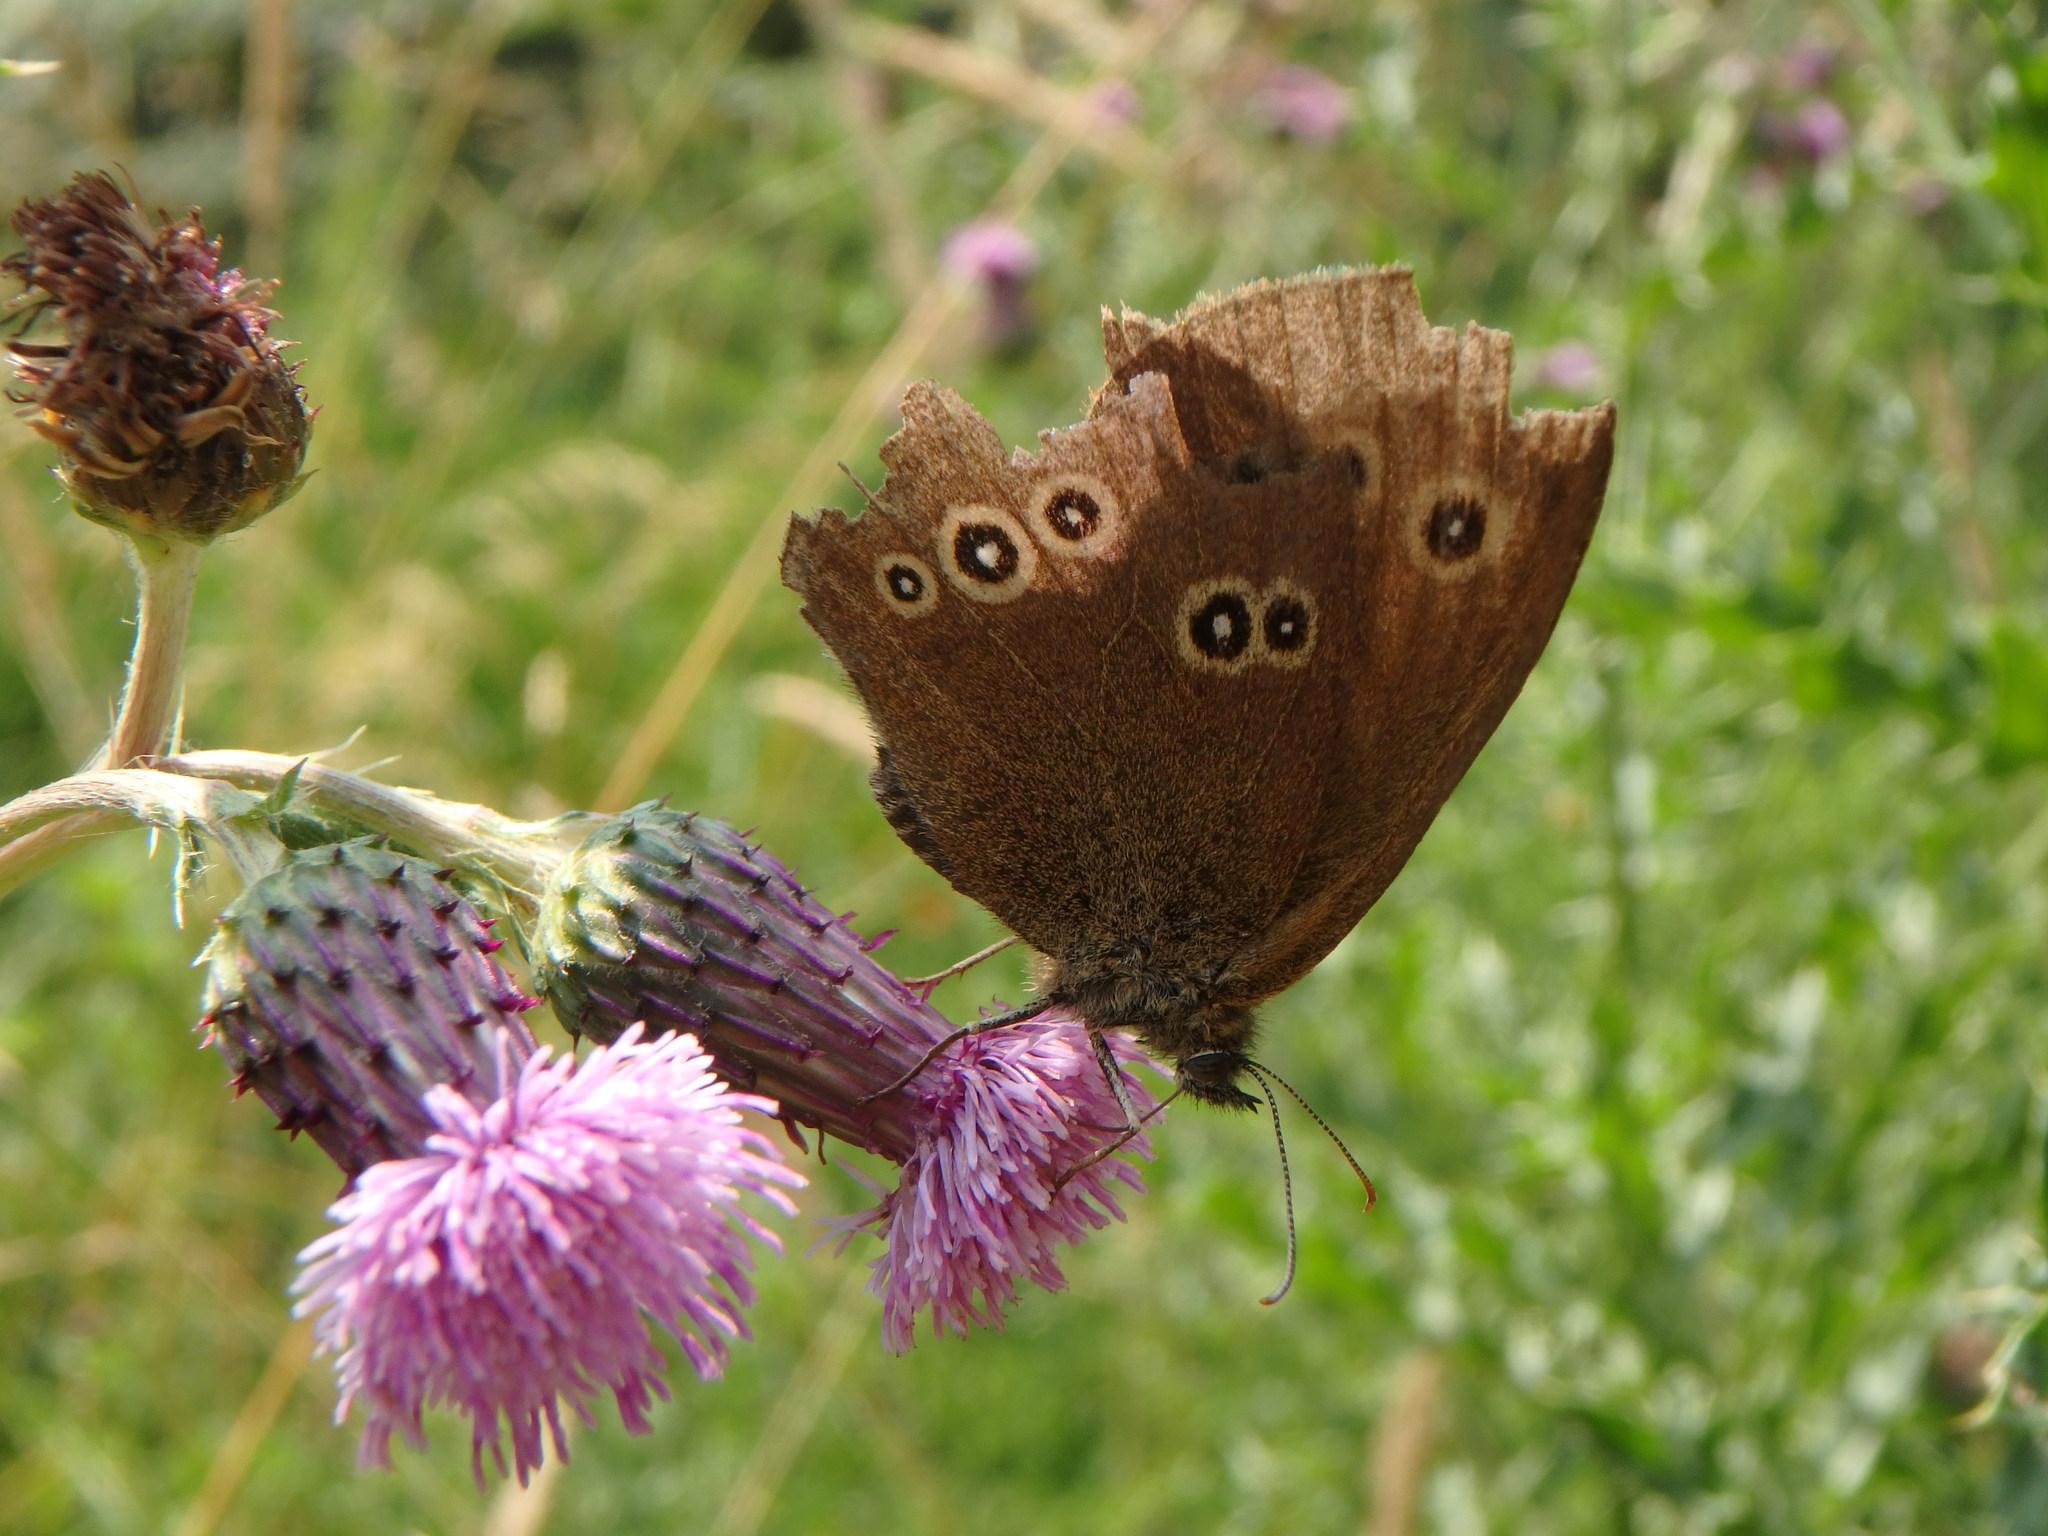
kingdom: Animalia
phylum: Arthropoda
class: Insecta
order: Lepidoptera
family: Nymphalidae
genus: Aphantopus
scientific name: Aphantopus hyperantus
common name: Ringlet
